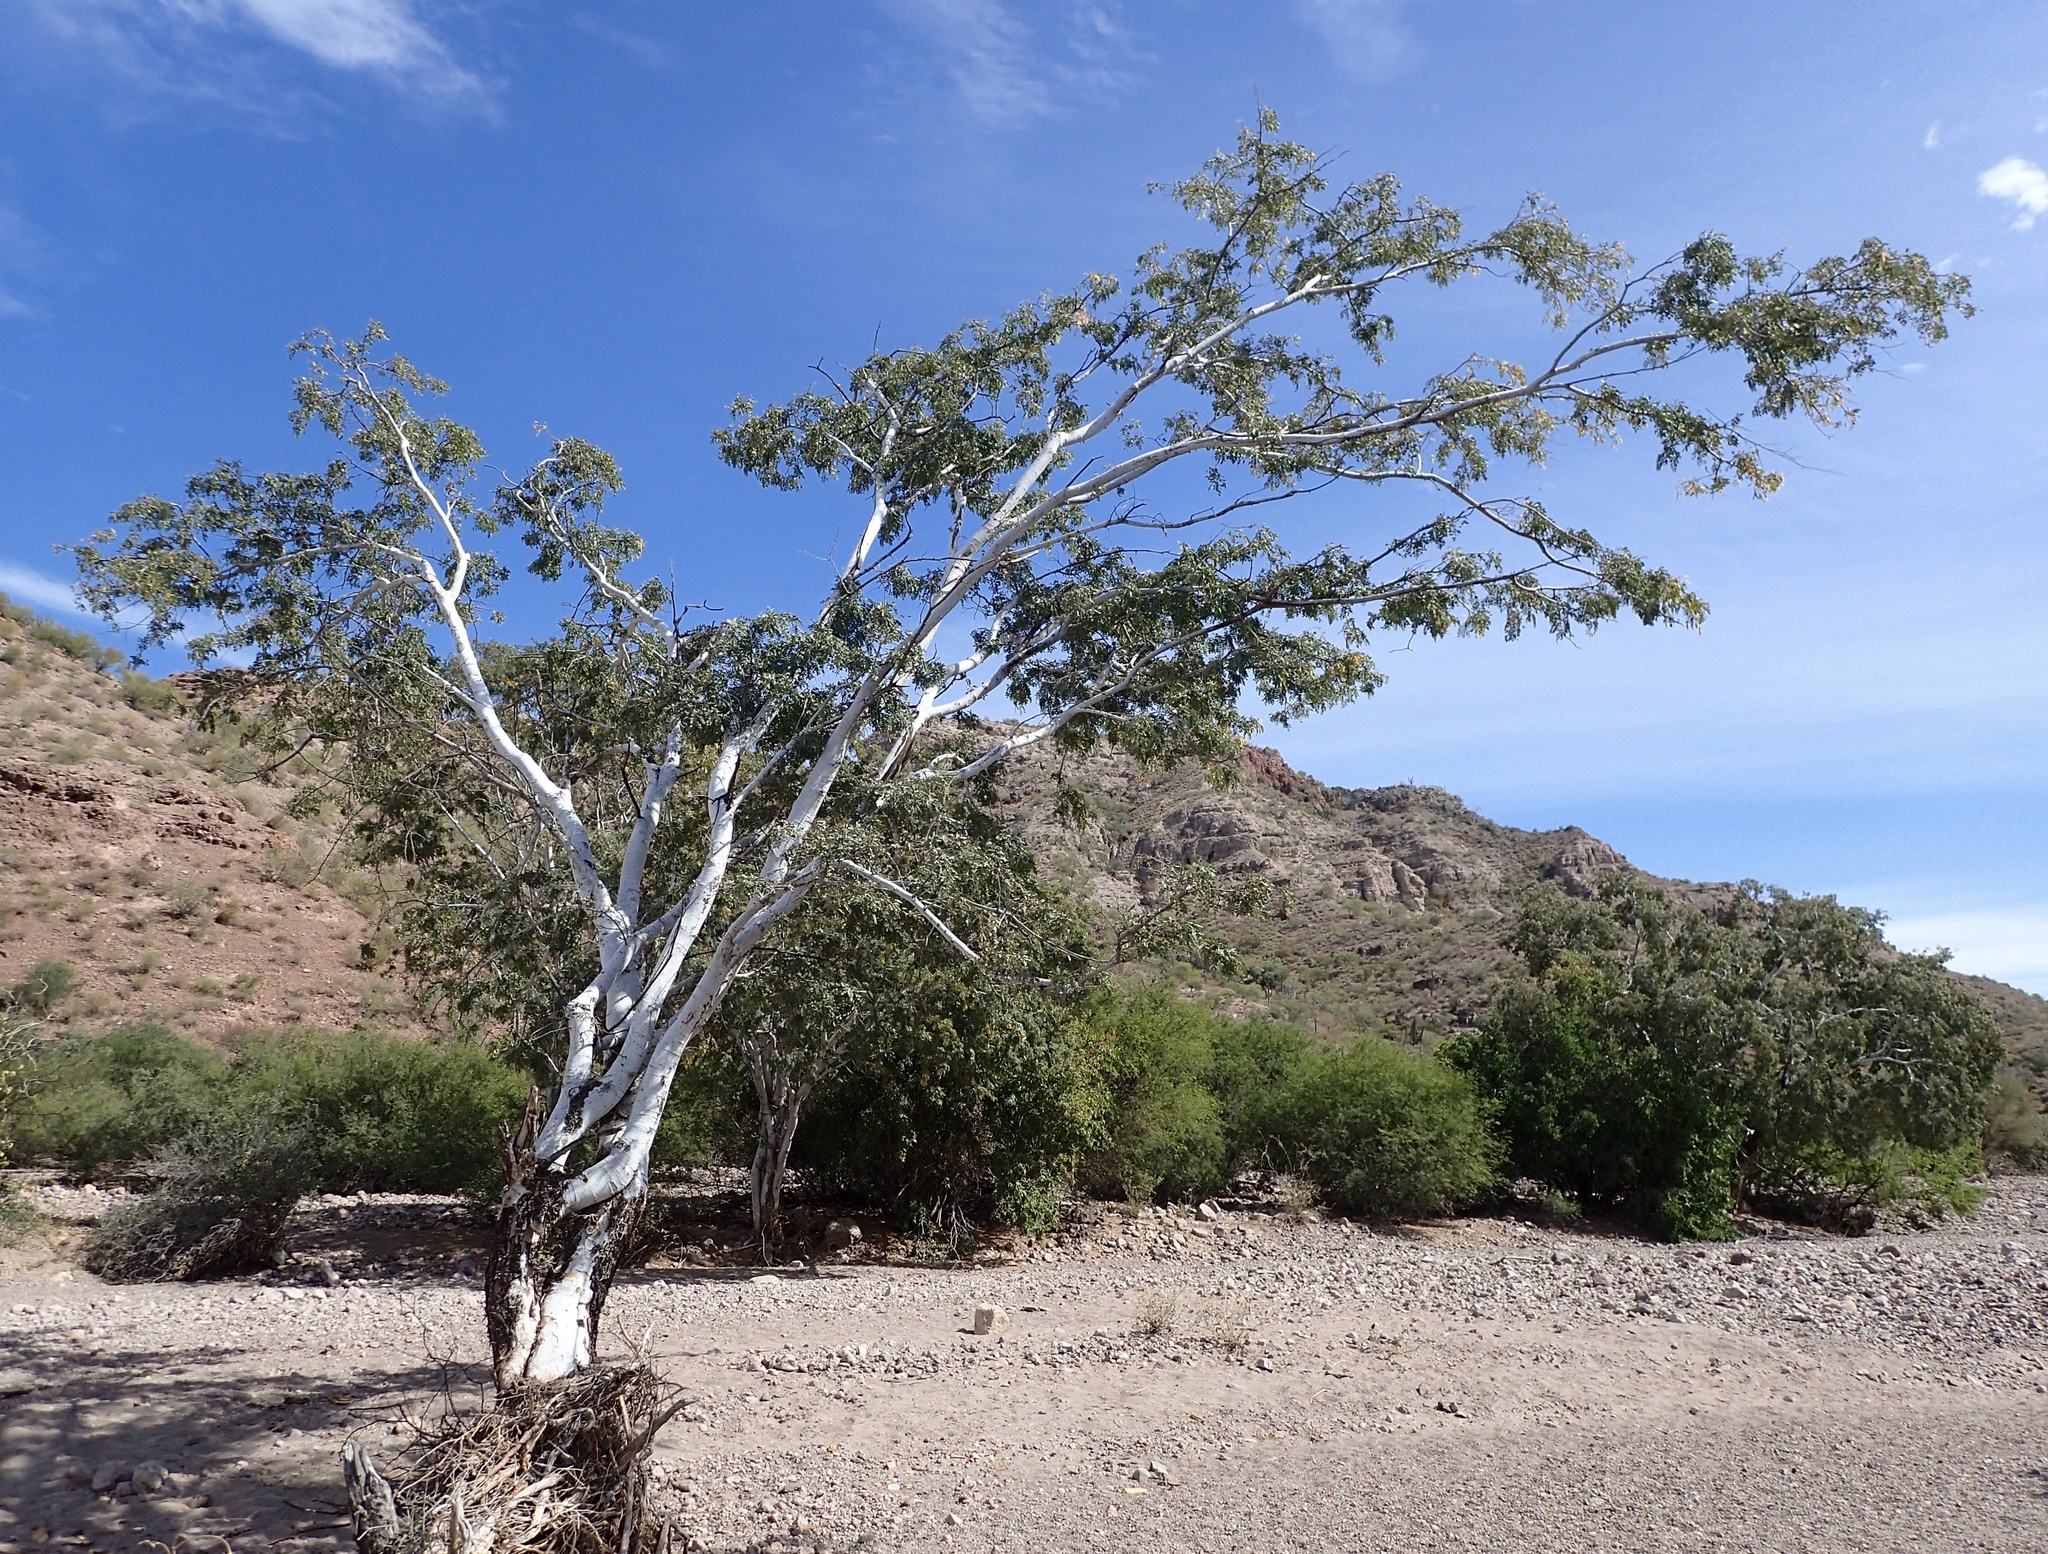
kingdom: Plantae
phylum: Tracheophyta
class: Magnoliopsida
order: Fabales
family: Fabaceae
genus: Lysiloma
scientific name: Lysiloma candidum
